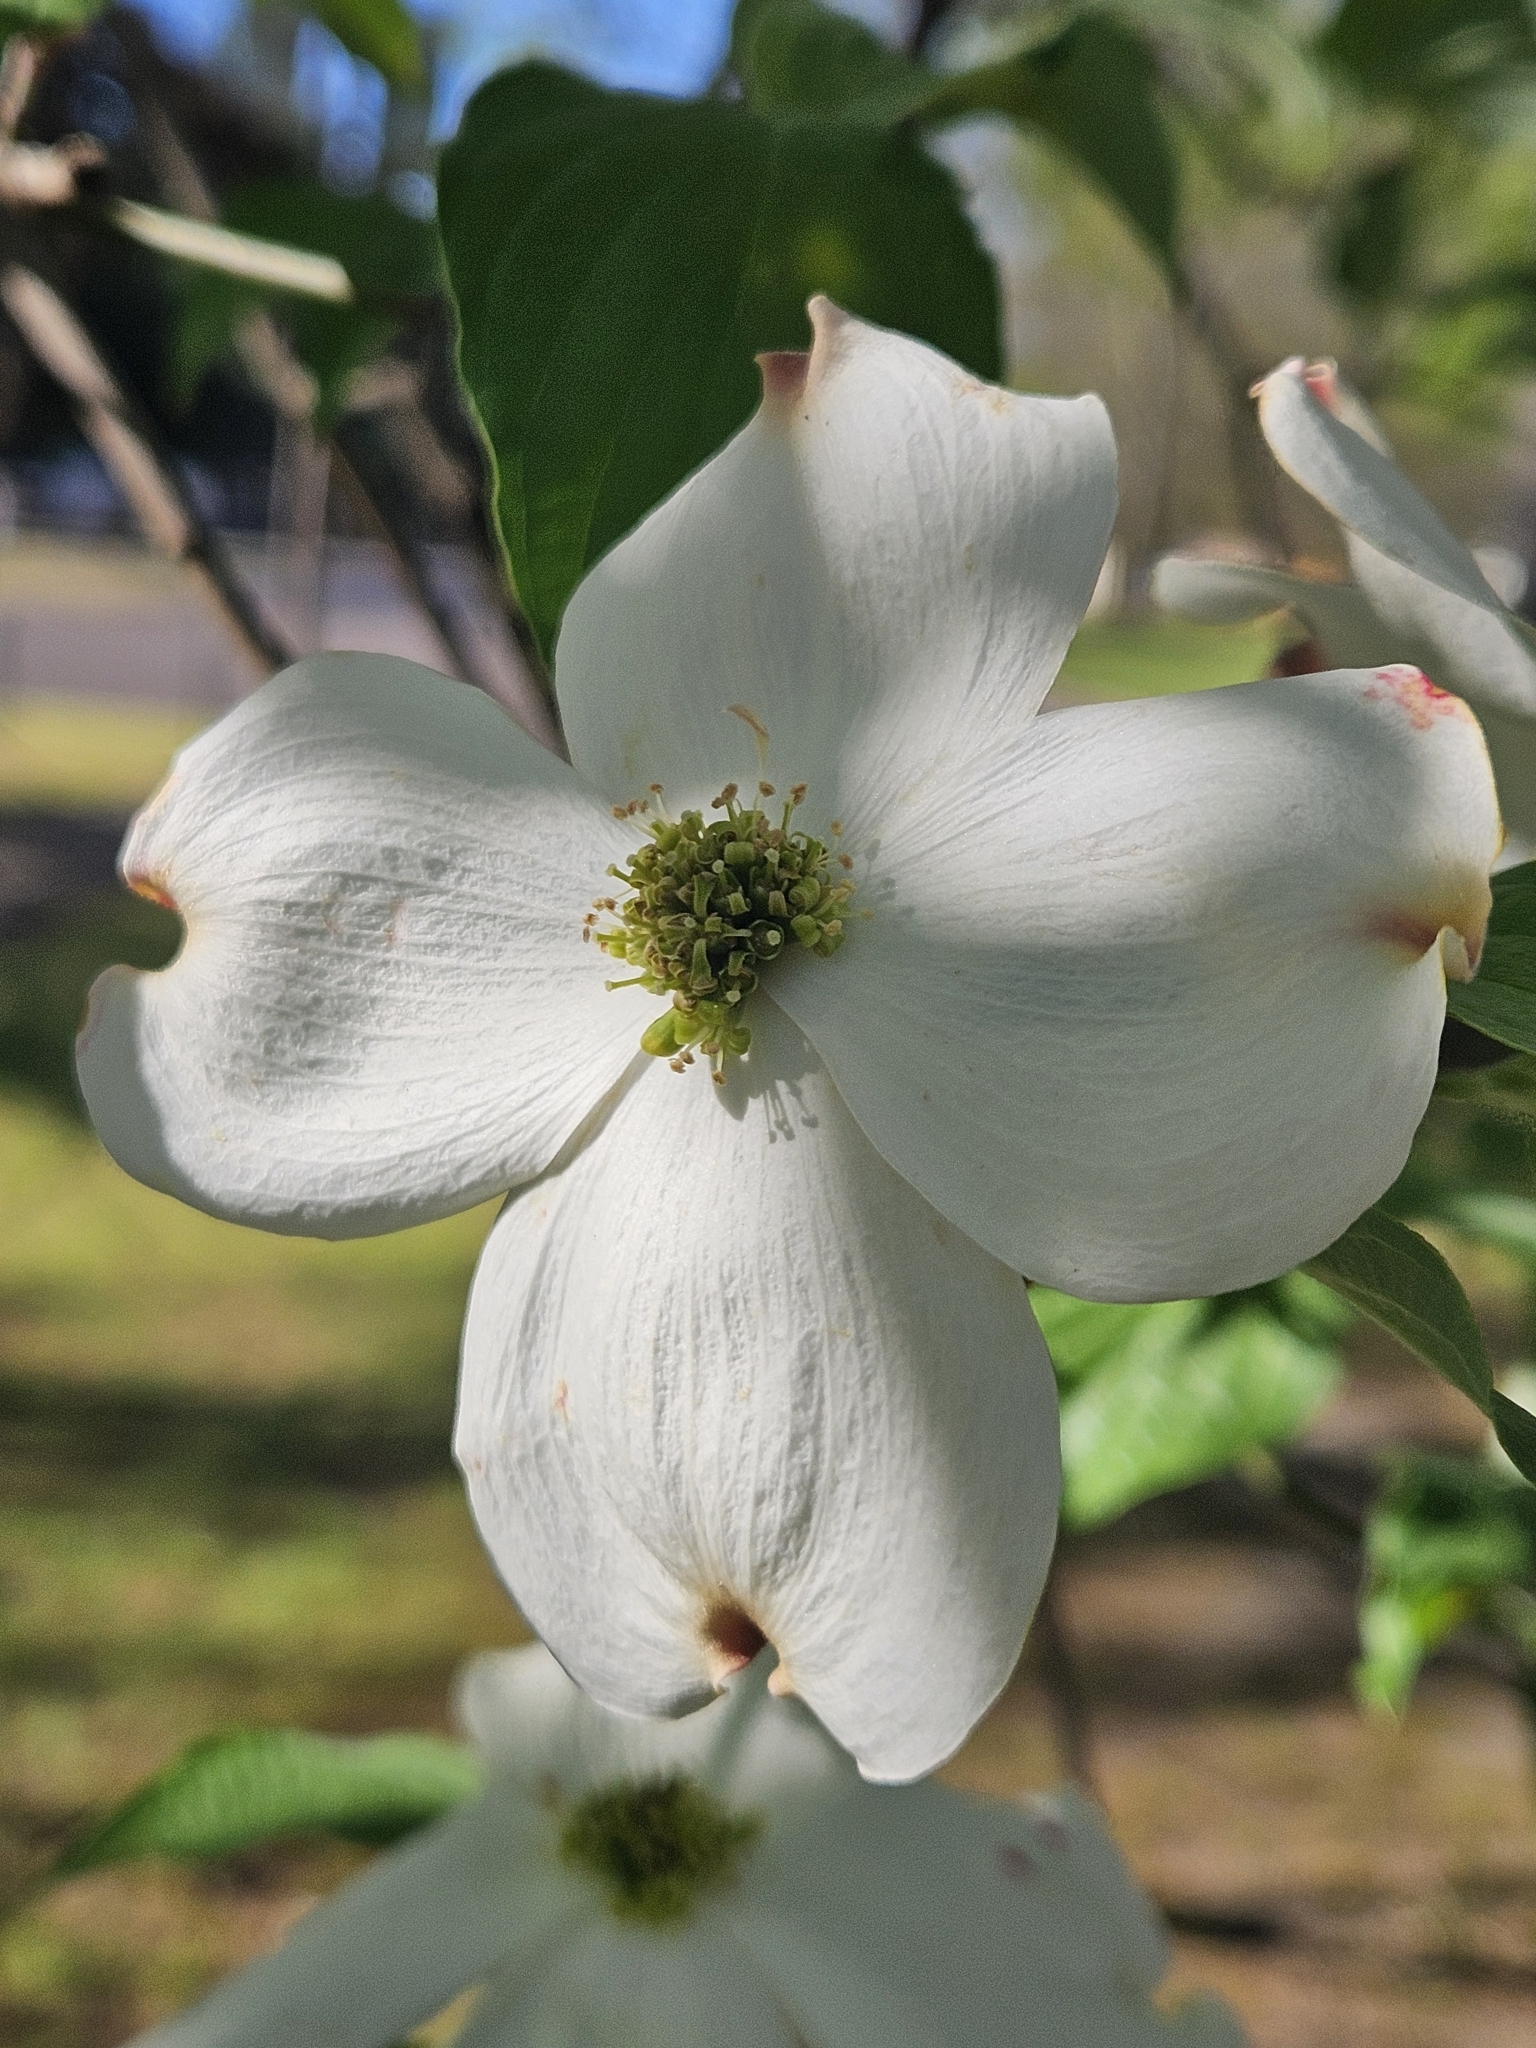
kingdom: Plantae
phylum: Tracheophyta
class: Magnoliopsida
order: Cornales
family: Cornaceae
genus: Cornus
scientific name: Cornus florida
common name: Flowering dogwood
